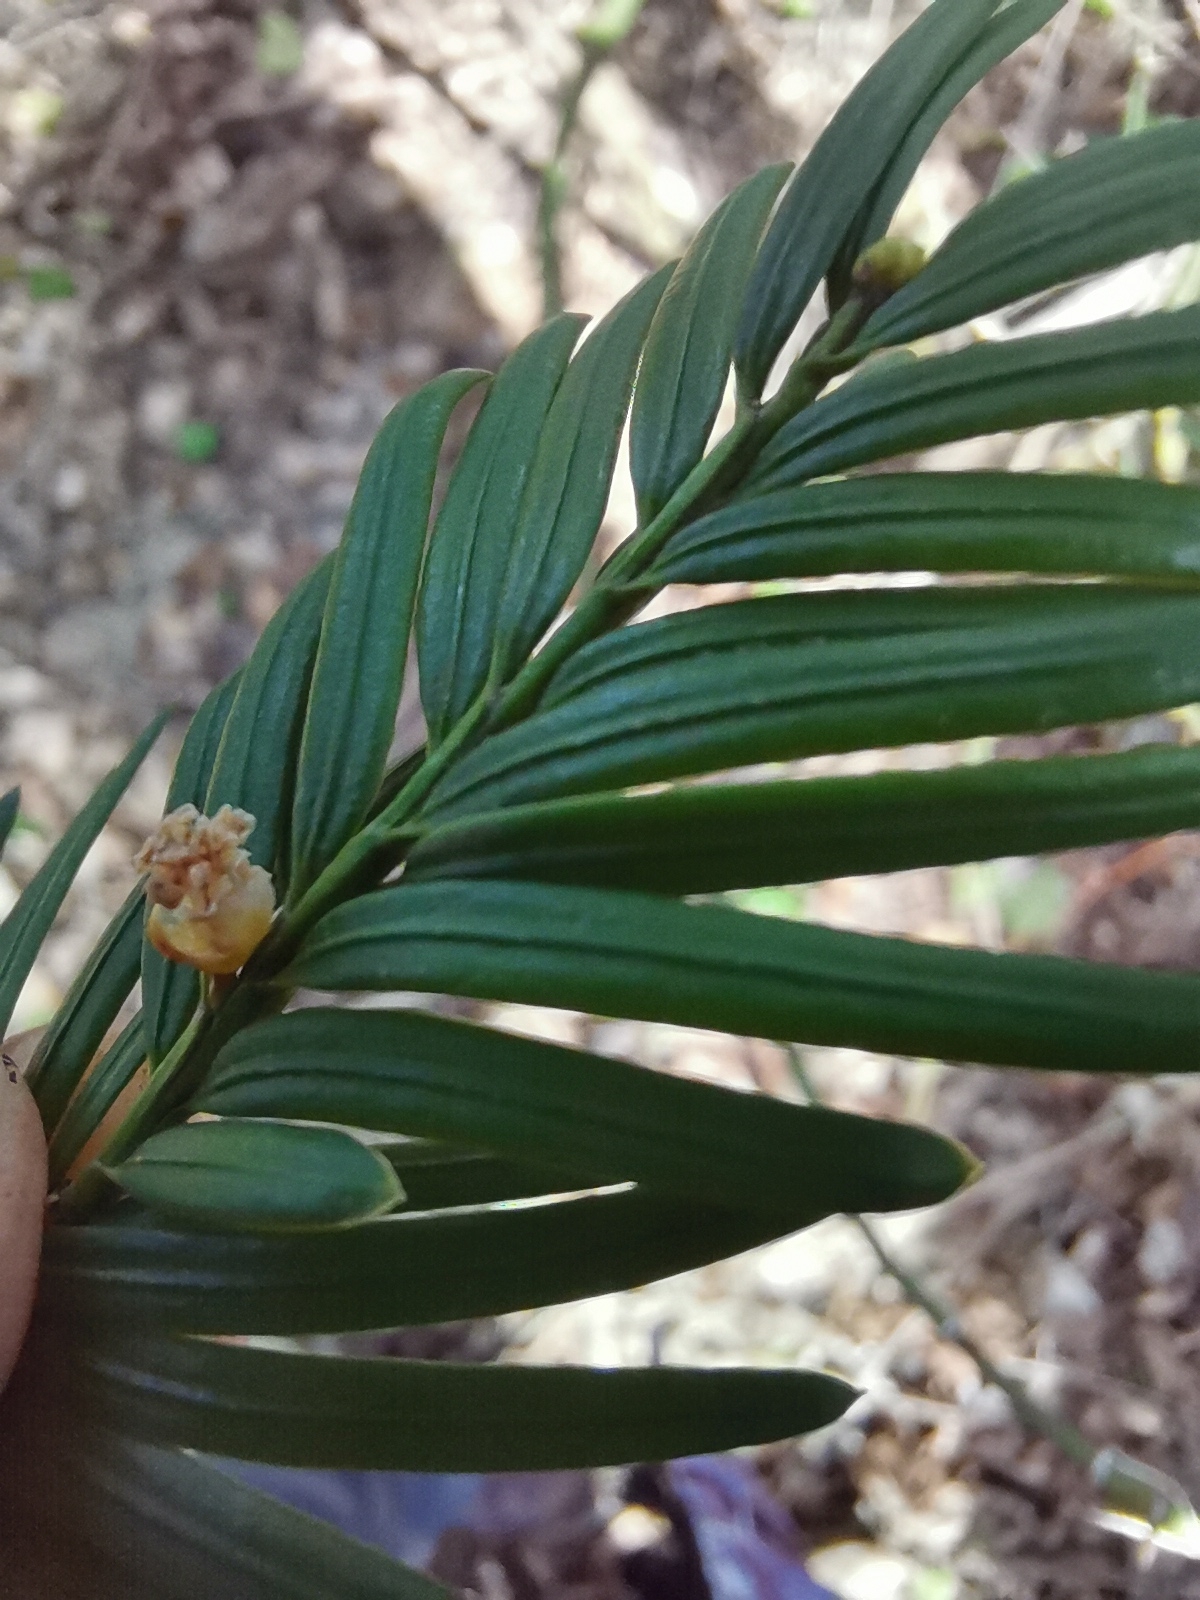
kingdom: Plantae
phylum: Tracheophyta
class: Pinopsida
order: Pinales
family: Taxaceae
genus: Taxus
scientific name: Taxus baccata
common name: Yew
